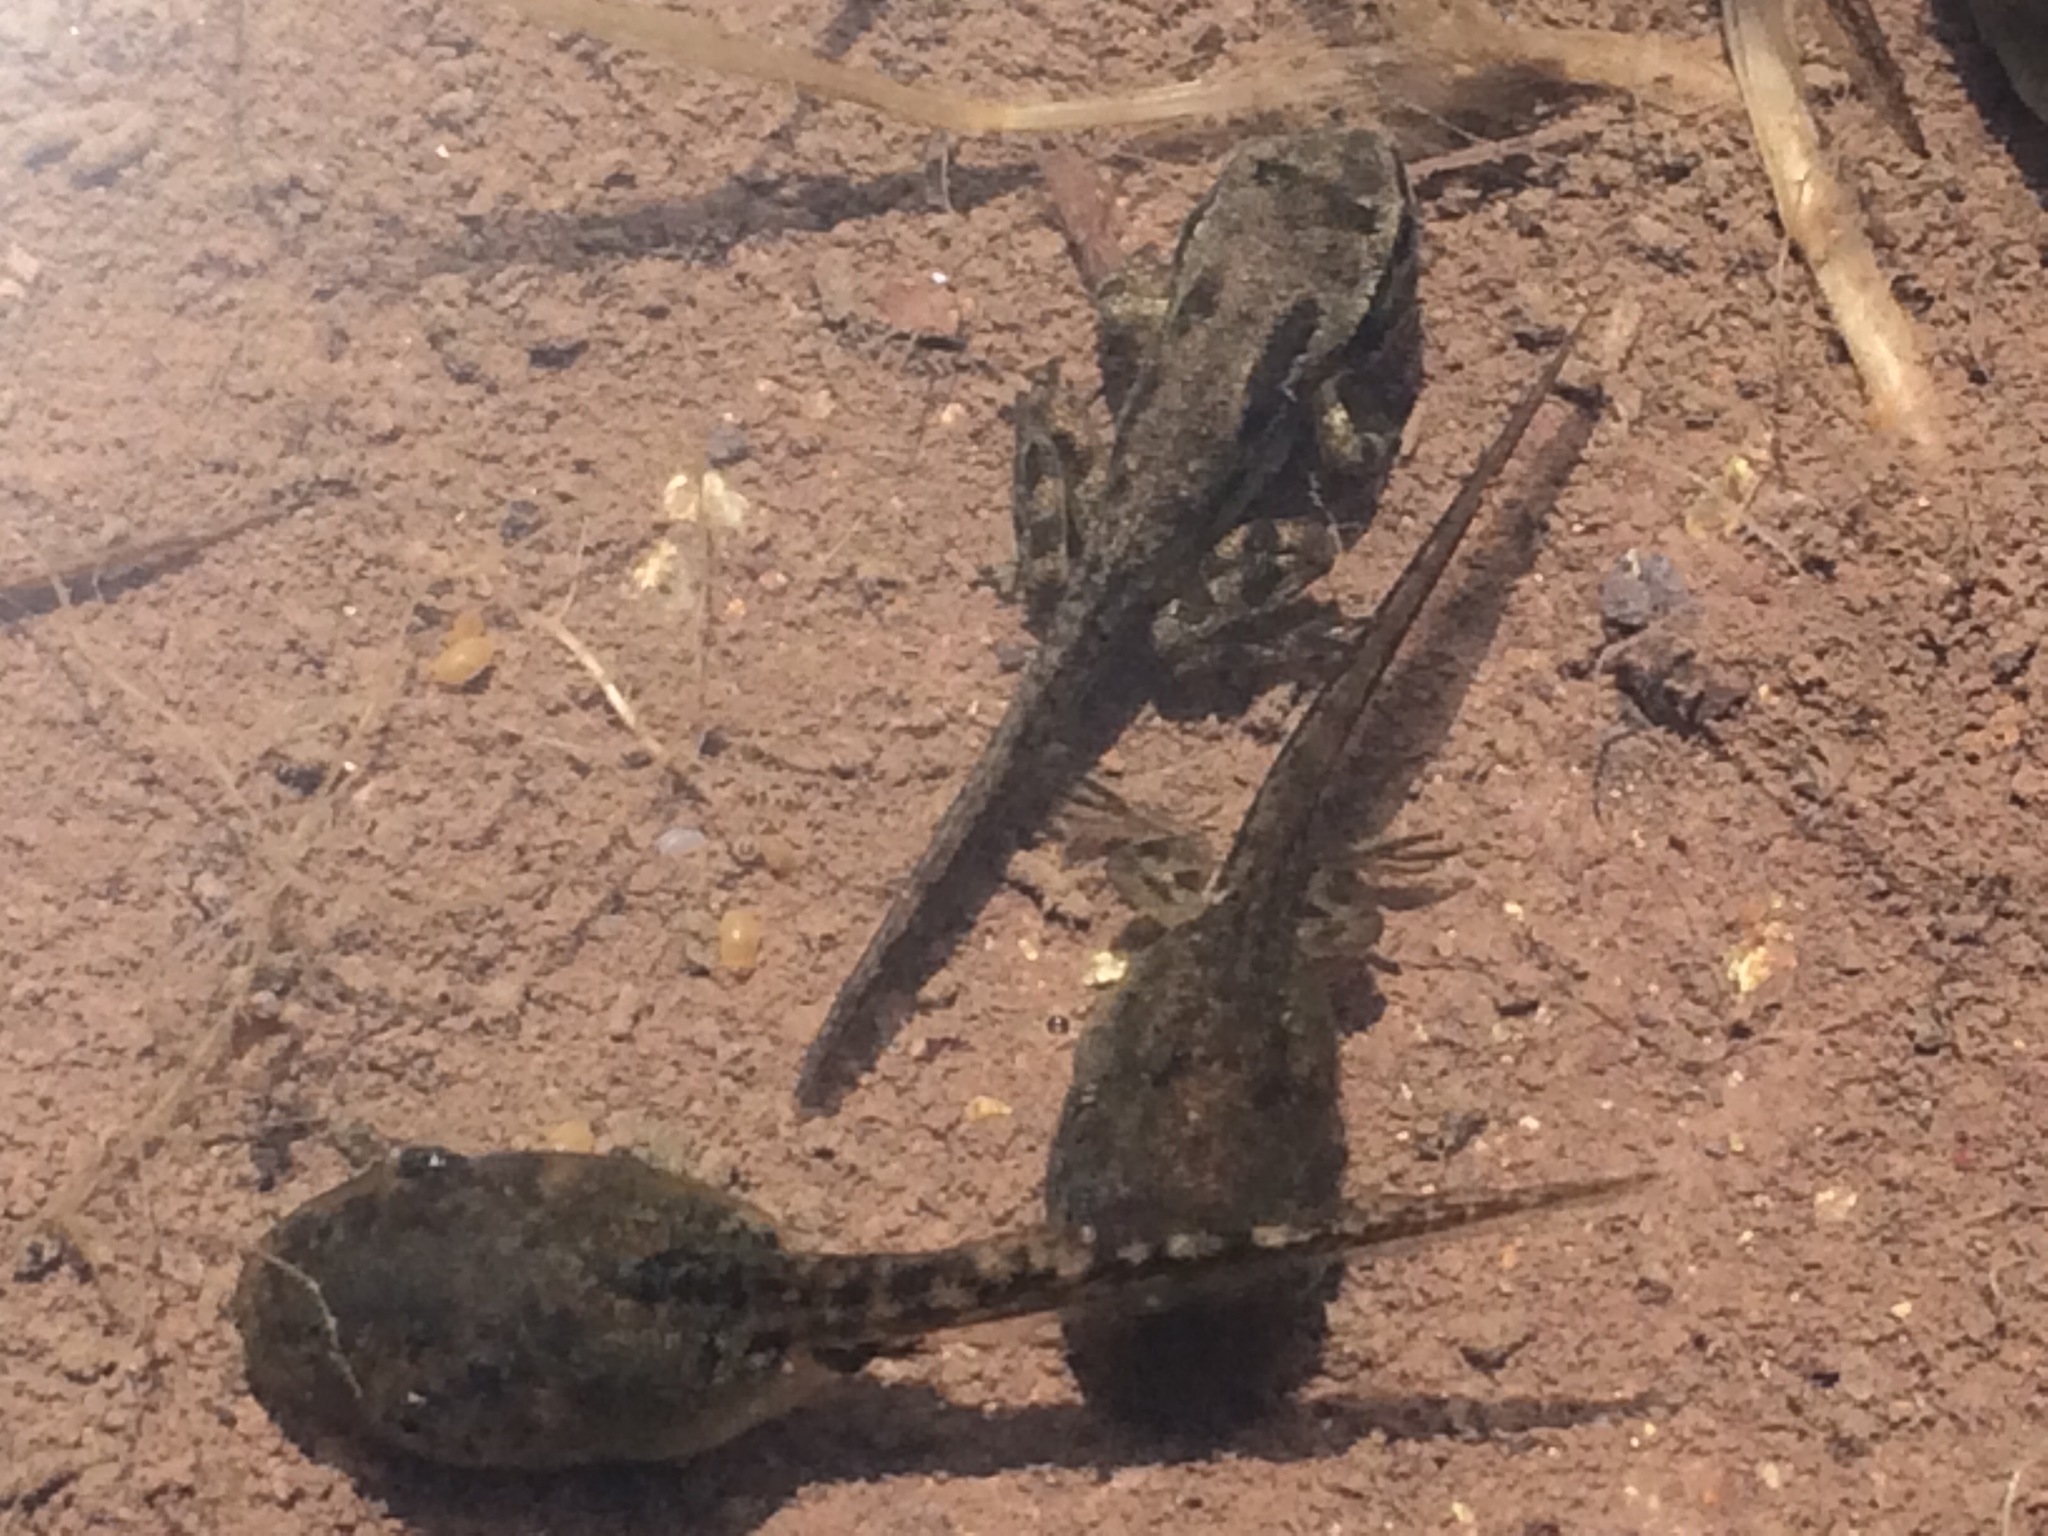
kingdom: Animalia
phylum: Chordata
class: Amphibia
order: Anura
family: Hylidae
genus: Pseudacris
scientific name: Pseudacris regilla
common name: Pacific chorus frog
